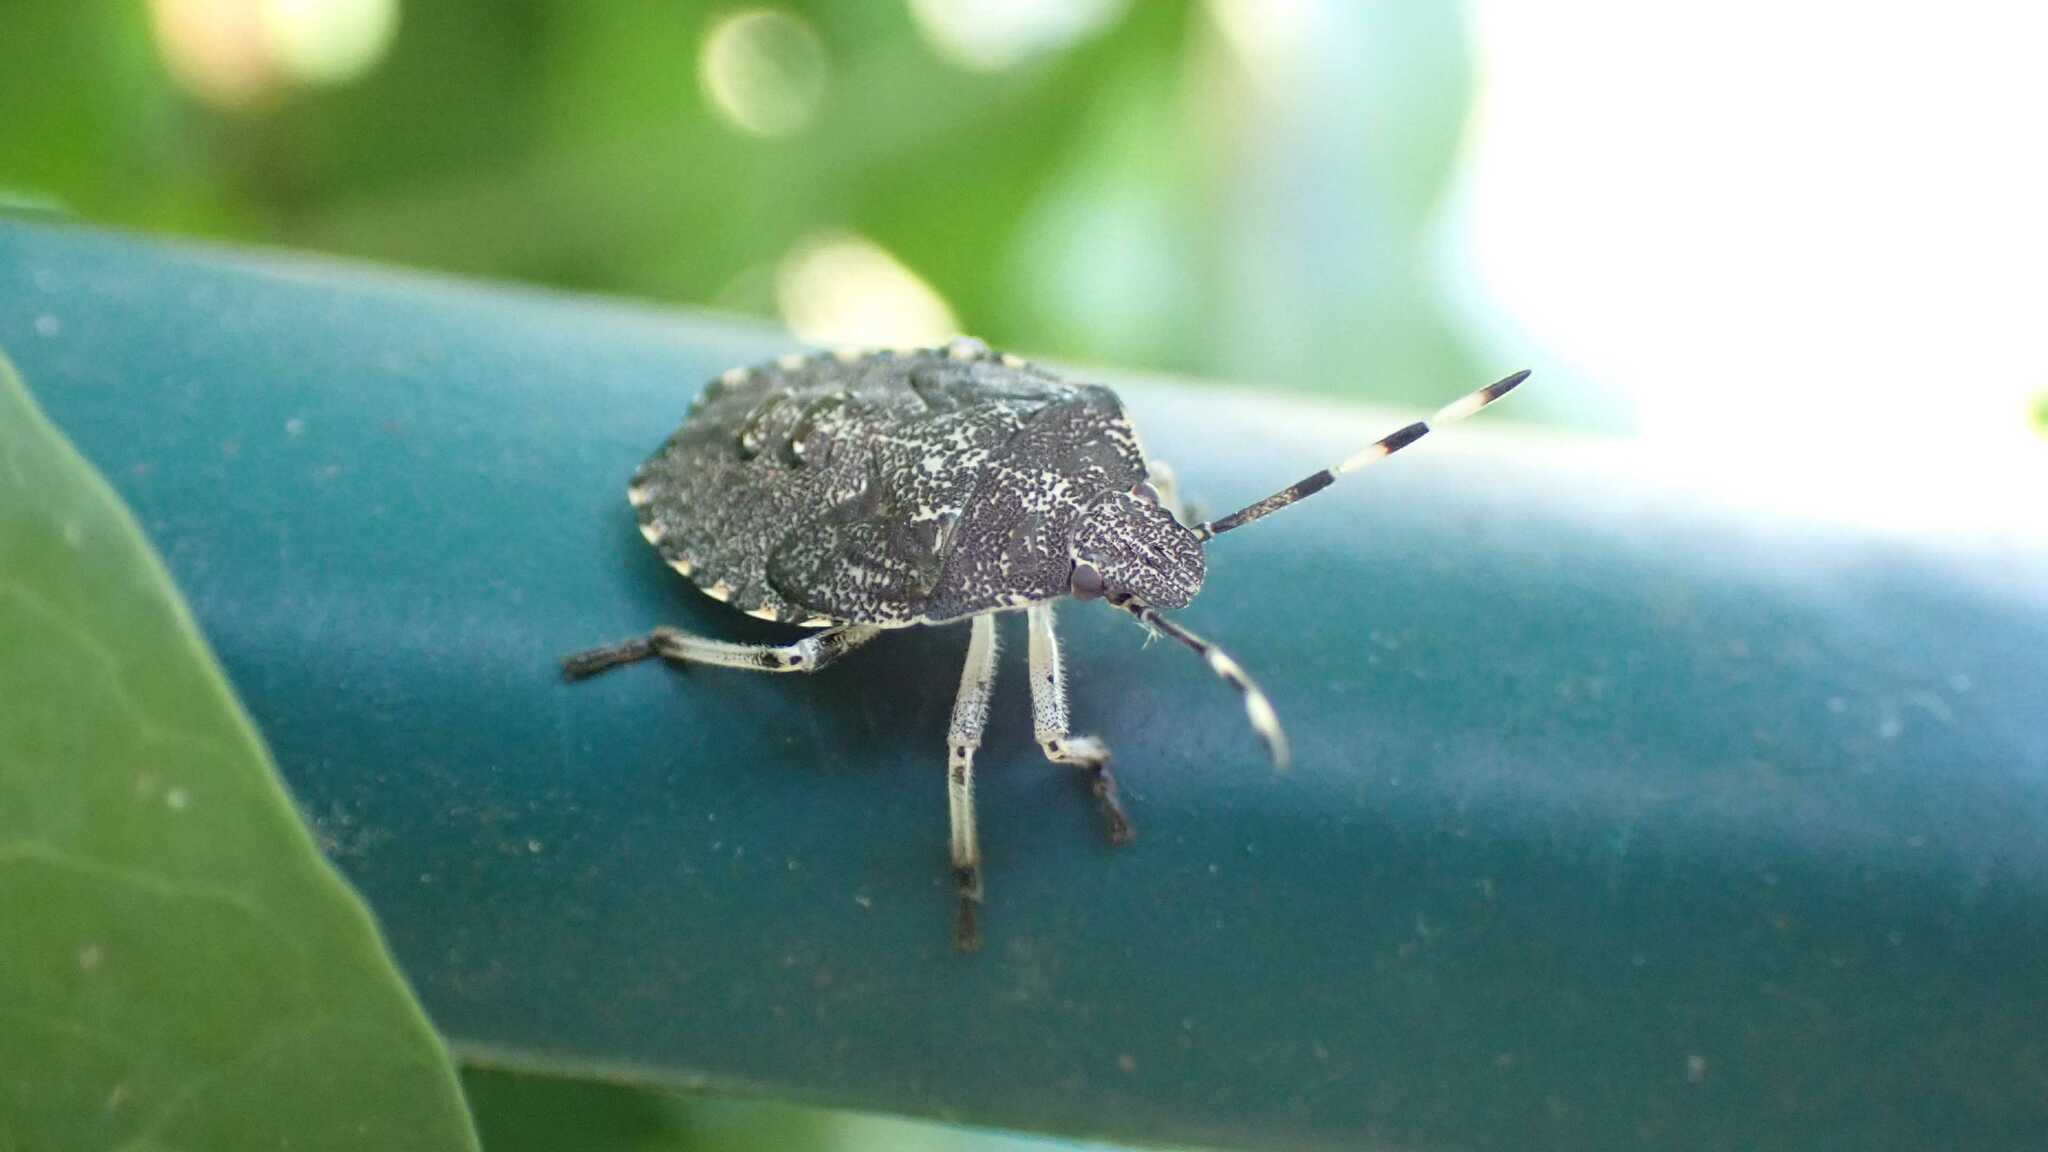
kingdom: Animalia
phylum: Arthropoda
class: Insecta
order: Hemiptera
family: Pentatomidae
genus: Rhaphigaster
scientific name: Rhaphigaster nebulosa
